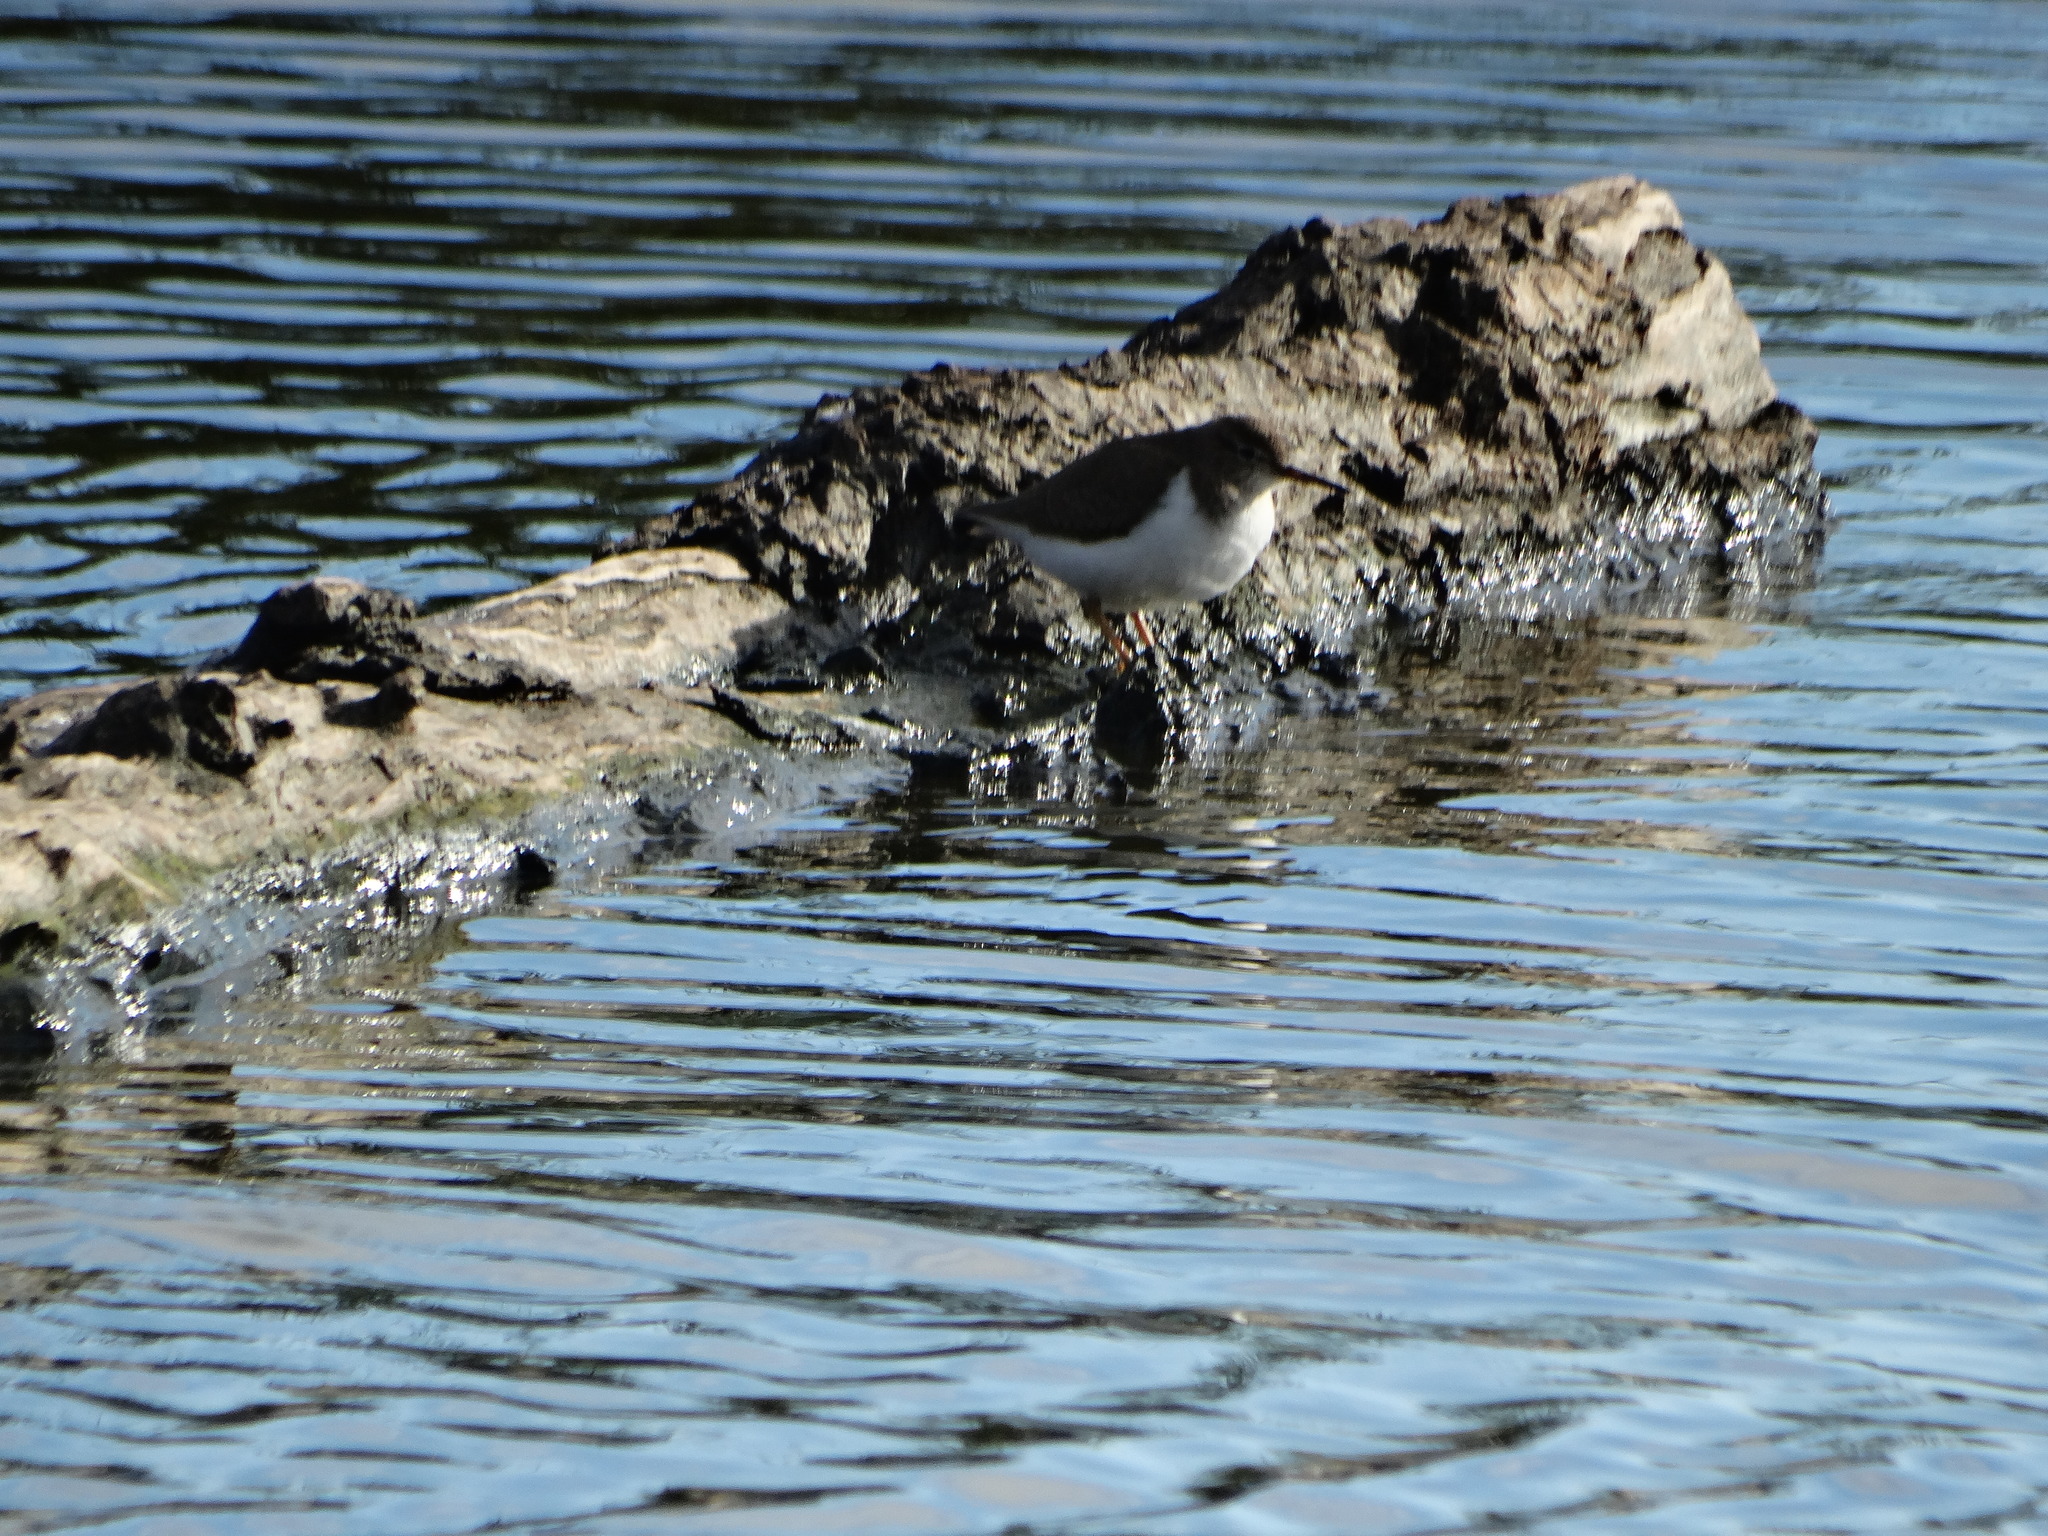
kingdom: Animalia
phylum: Chordata
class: Aves
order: Charadriiformes
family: Scolopacidae
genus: Actitis
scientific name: Actitis macularius
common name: Spotted sandpiper
